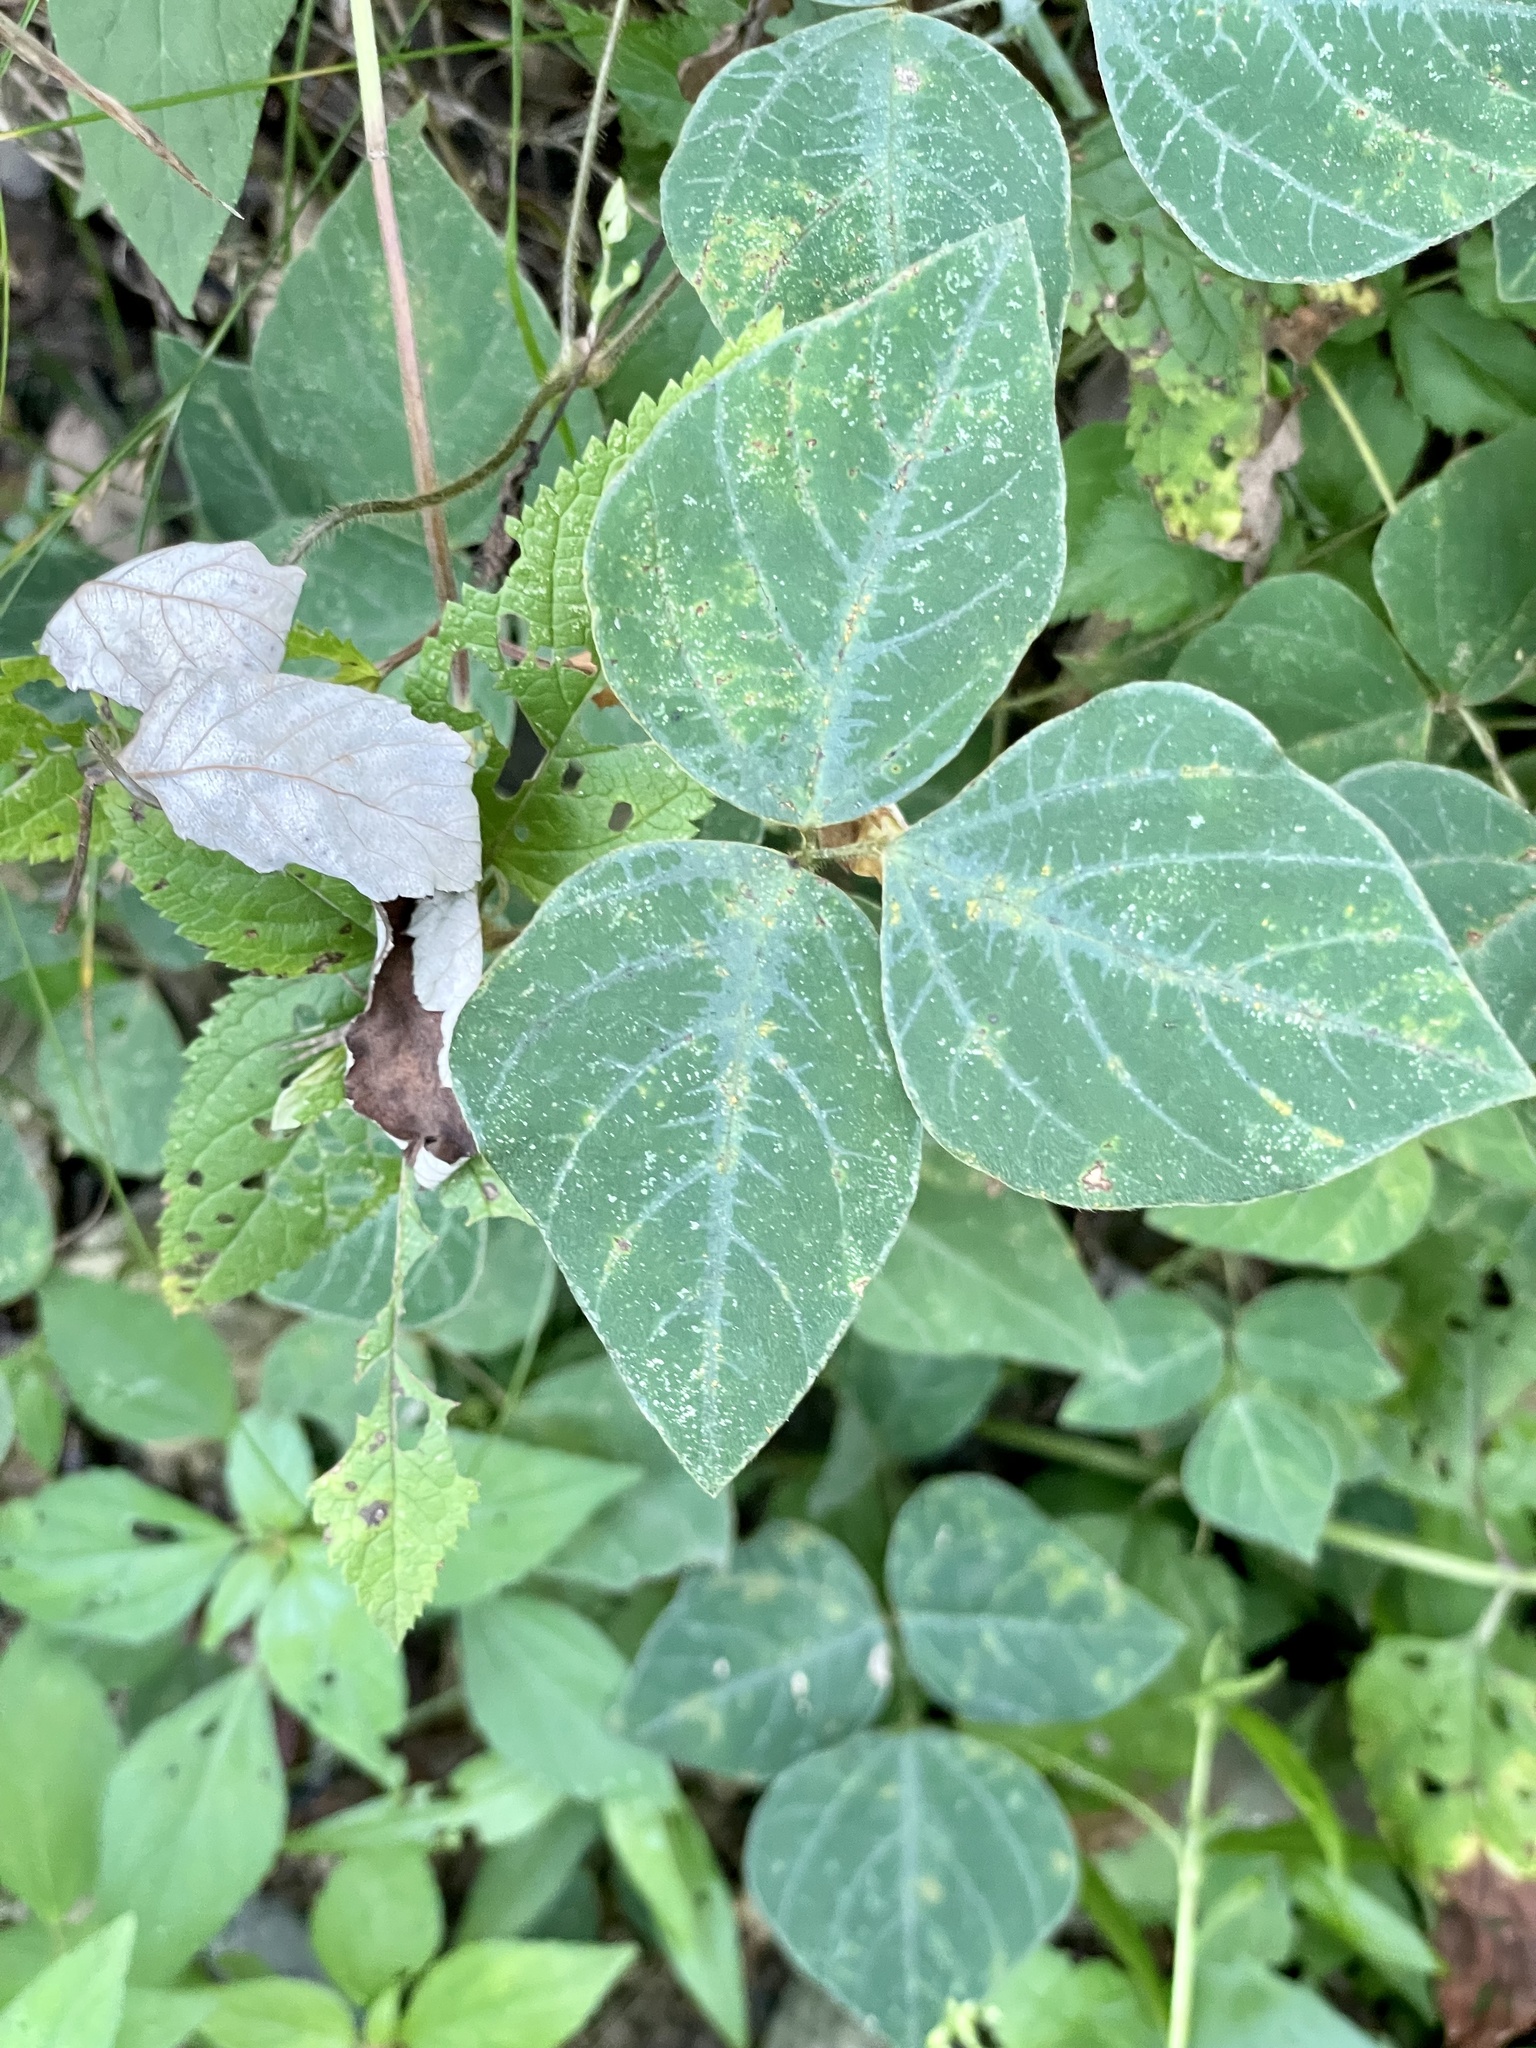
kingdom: Plantae
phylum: Tracheophyta
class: Magnoliopsida
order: Fabales
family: Fabaceae
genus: Amphicarpaea
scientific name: Amphicarpaea bracteata
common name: American hog peanut
